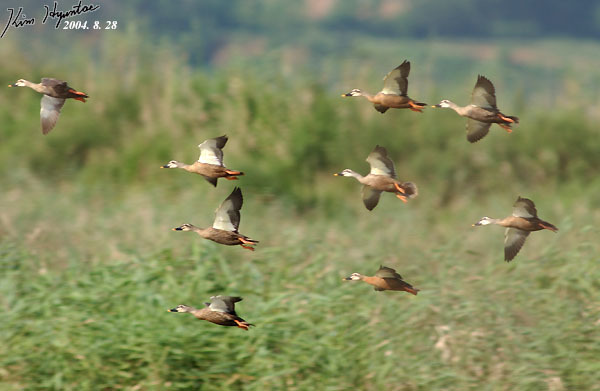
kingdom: Animalia
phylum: Chordata
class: Aves
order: Anseriformes
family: Anatidae
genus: Anas
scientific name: Anas zonorhyncha
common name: Eastern spot-billed duck
